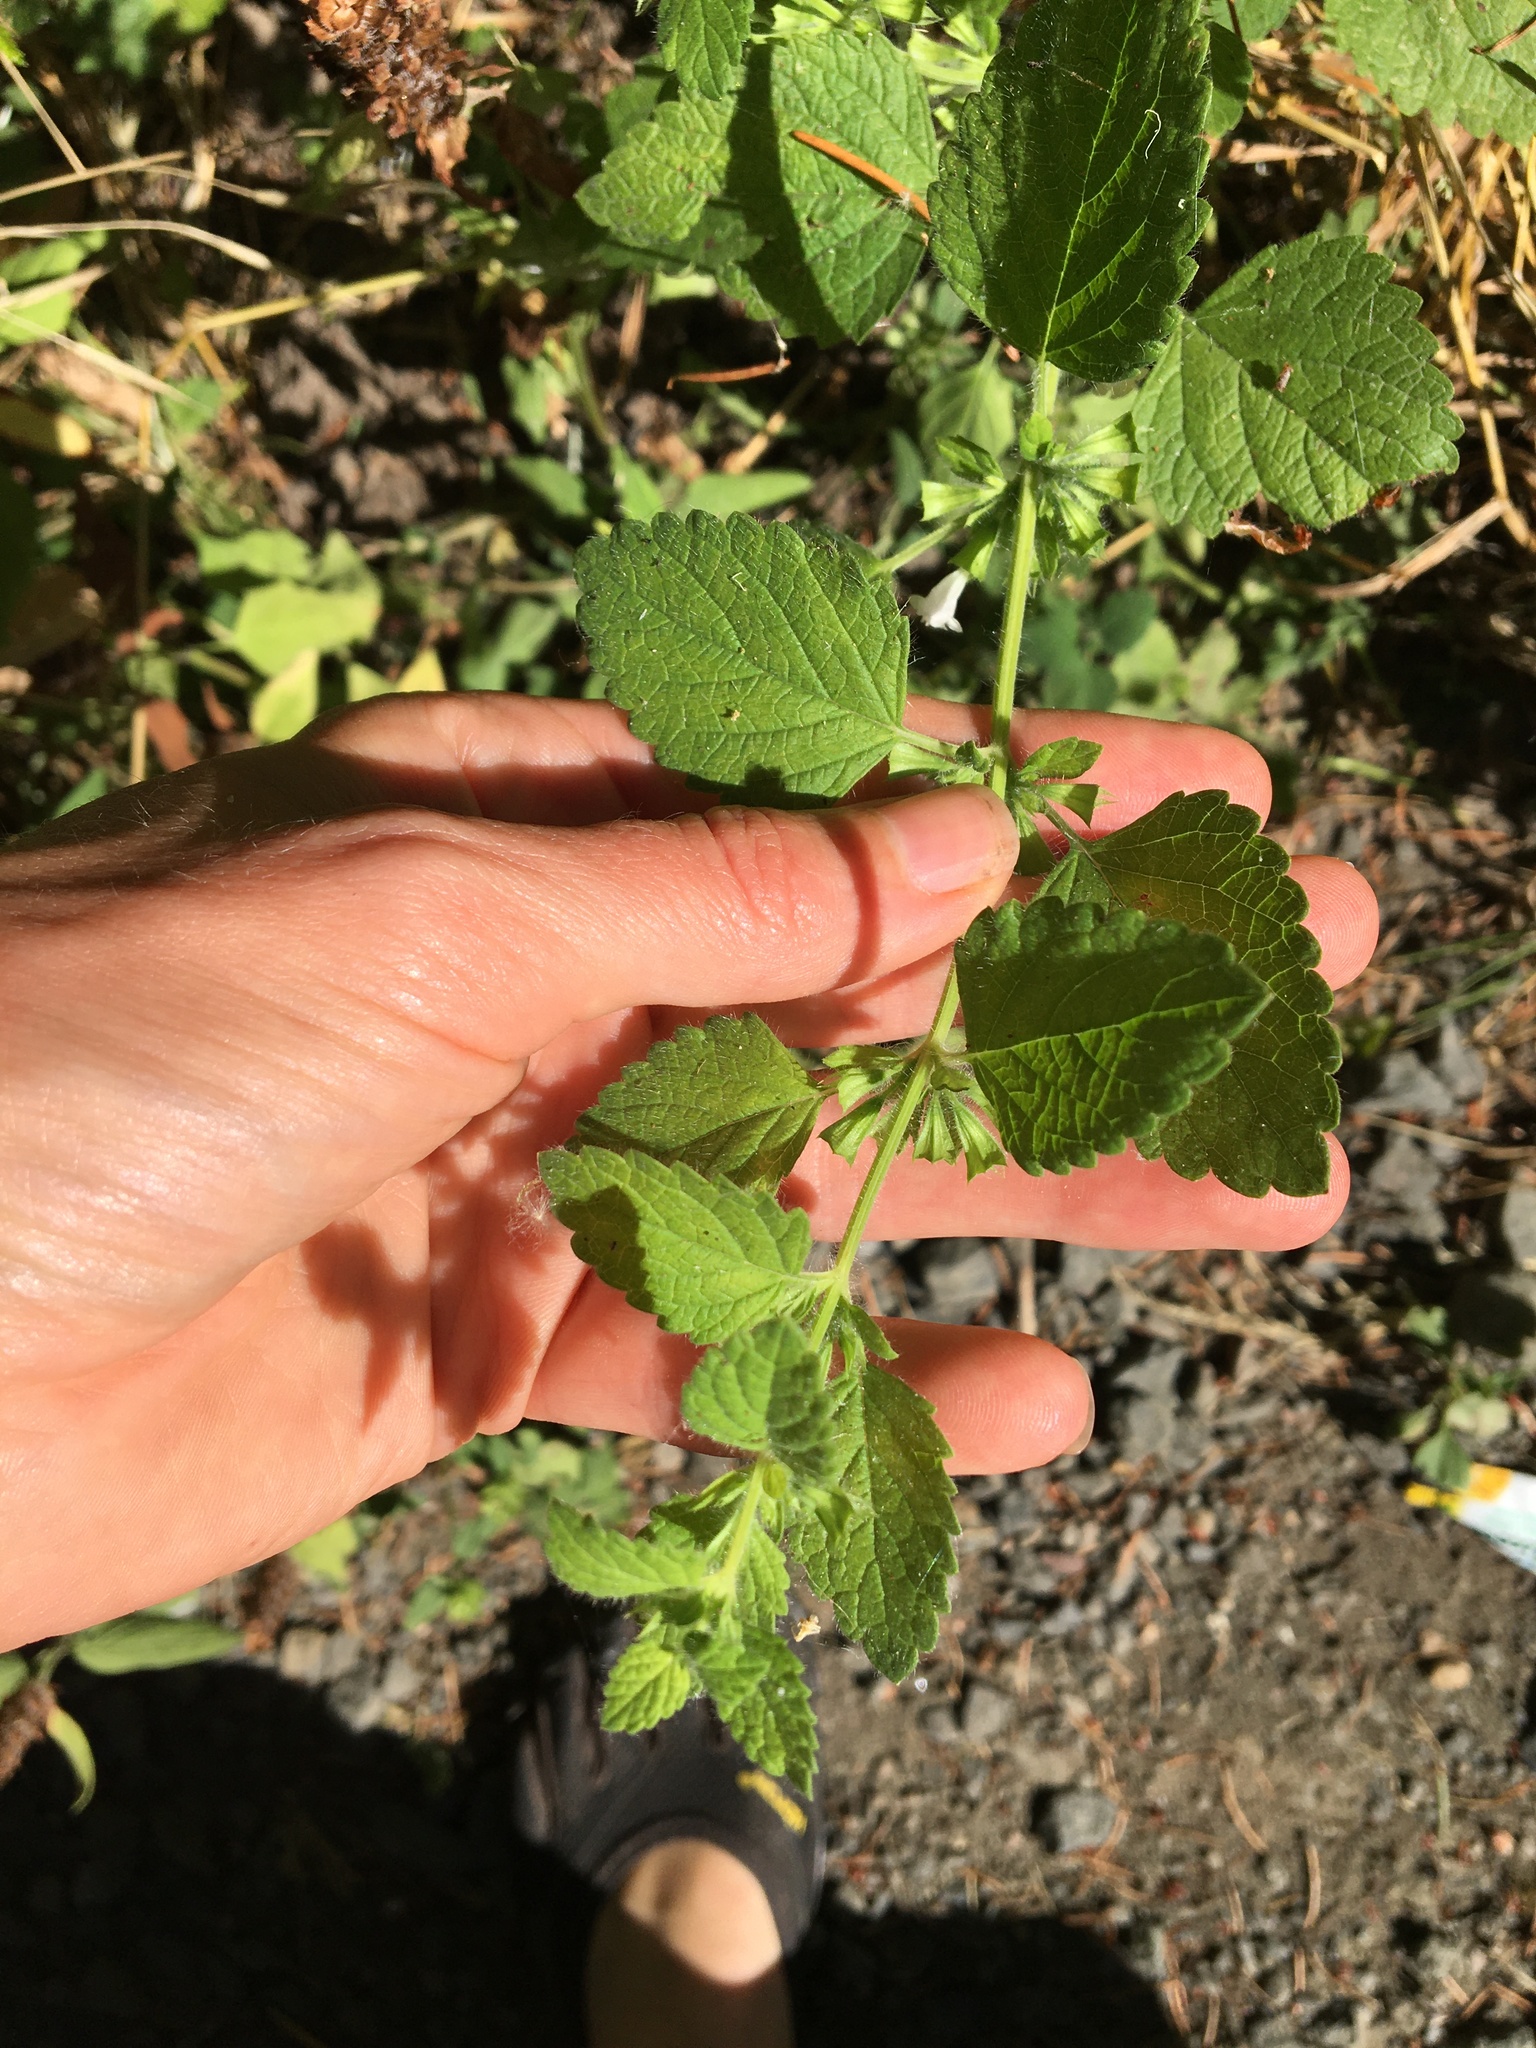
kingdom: Plantae
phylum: Tracheophyta
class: Magnoliopsida
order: Lamiales
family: Lamiaceae
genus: Melissa
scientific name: Melissa officinalis
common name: Balm
